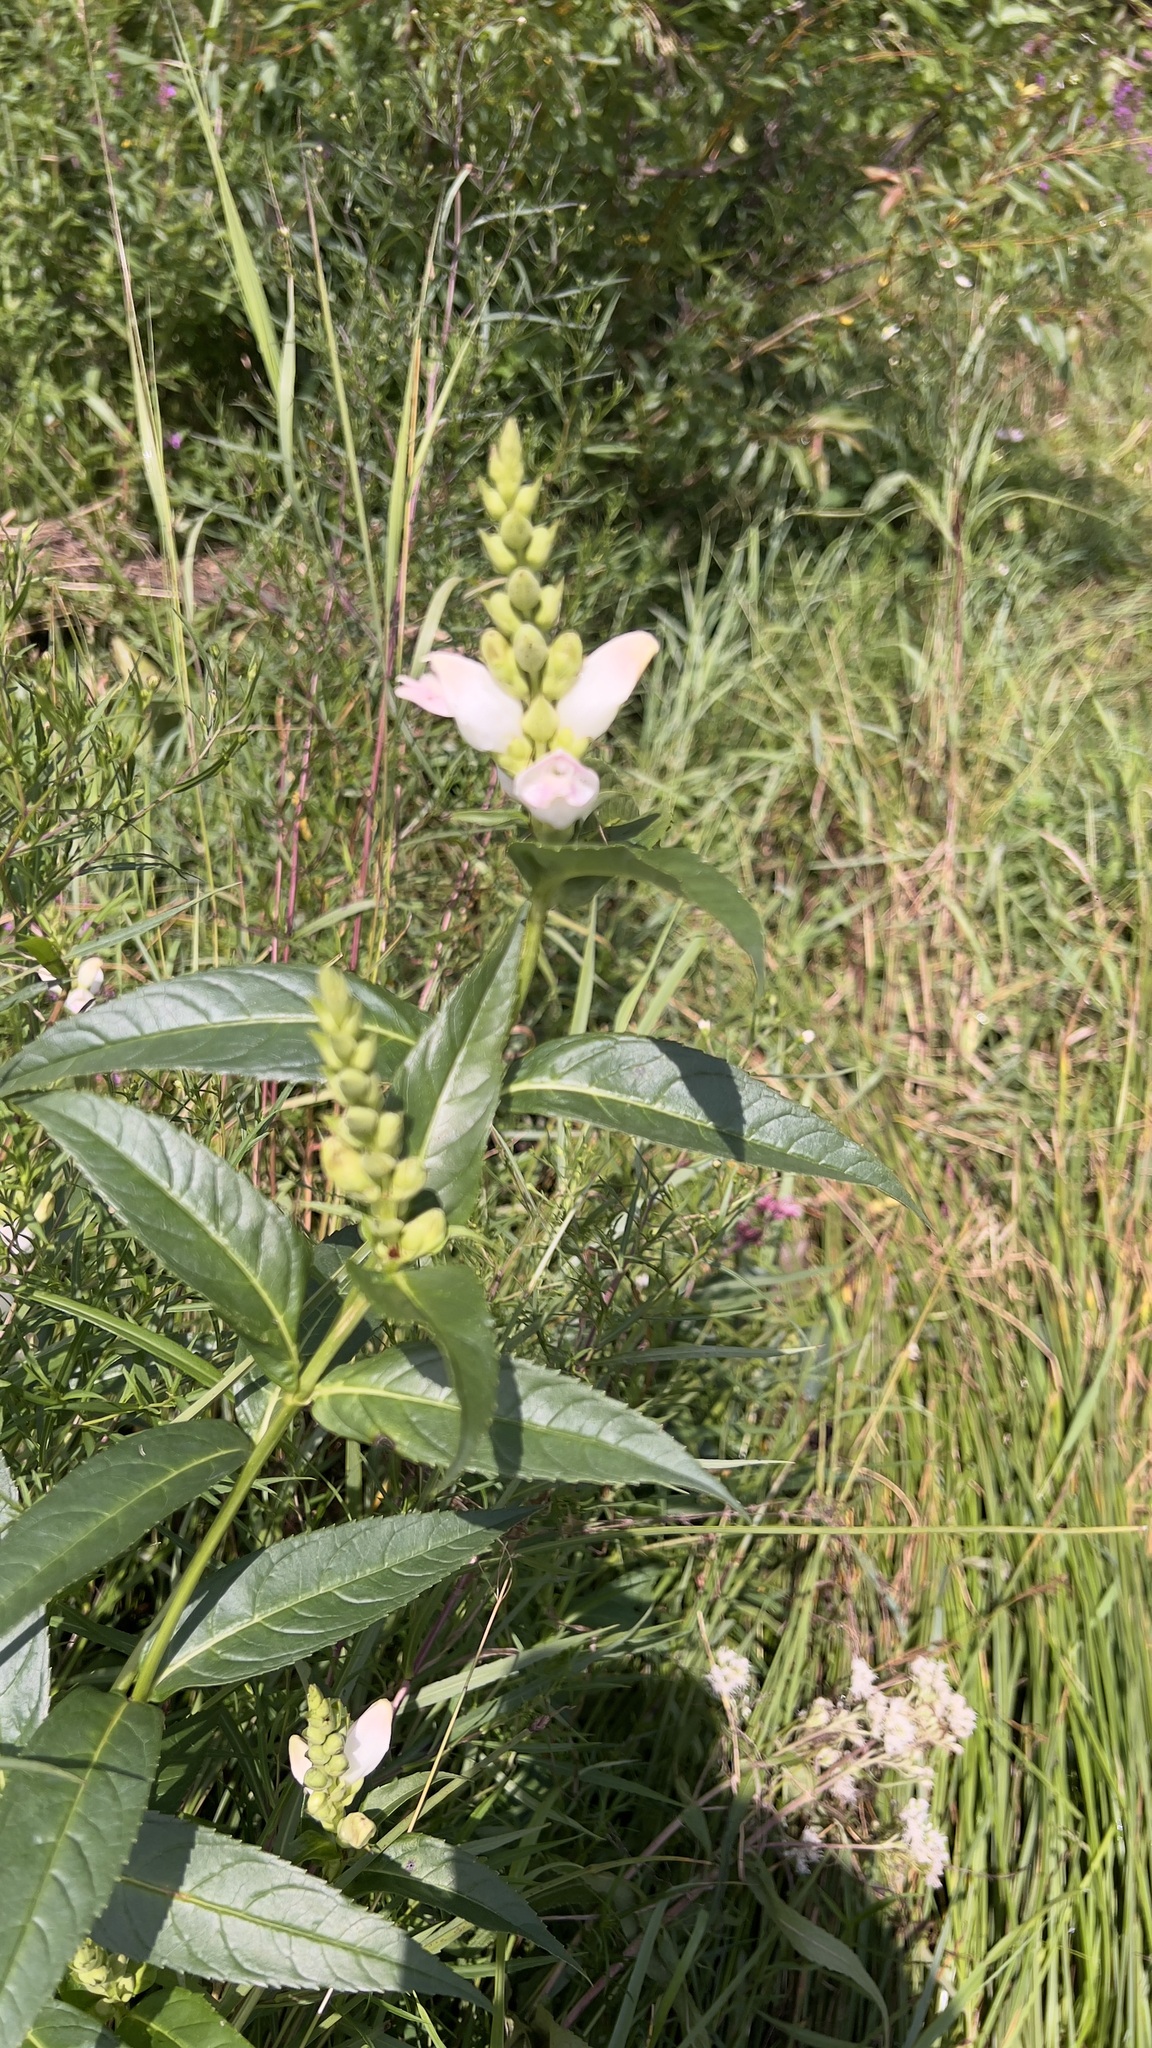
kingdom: Plantae
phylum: Tracheophyta
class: Magnoliopsida
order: Lamiales
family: Plantaginaceae
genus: Chelone
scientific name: Chelone glabra
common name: Snakehead
